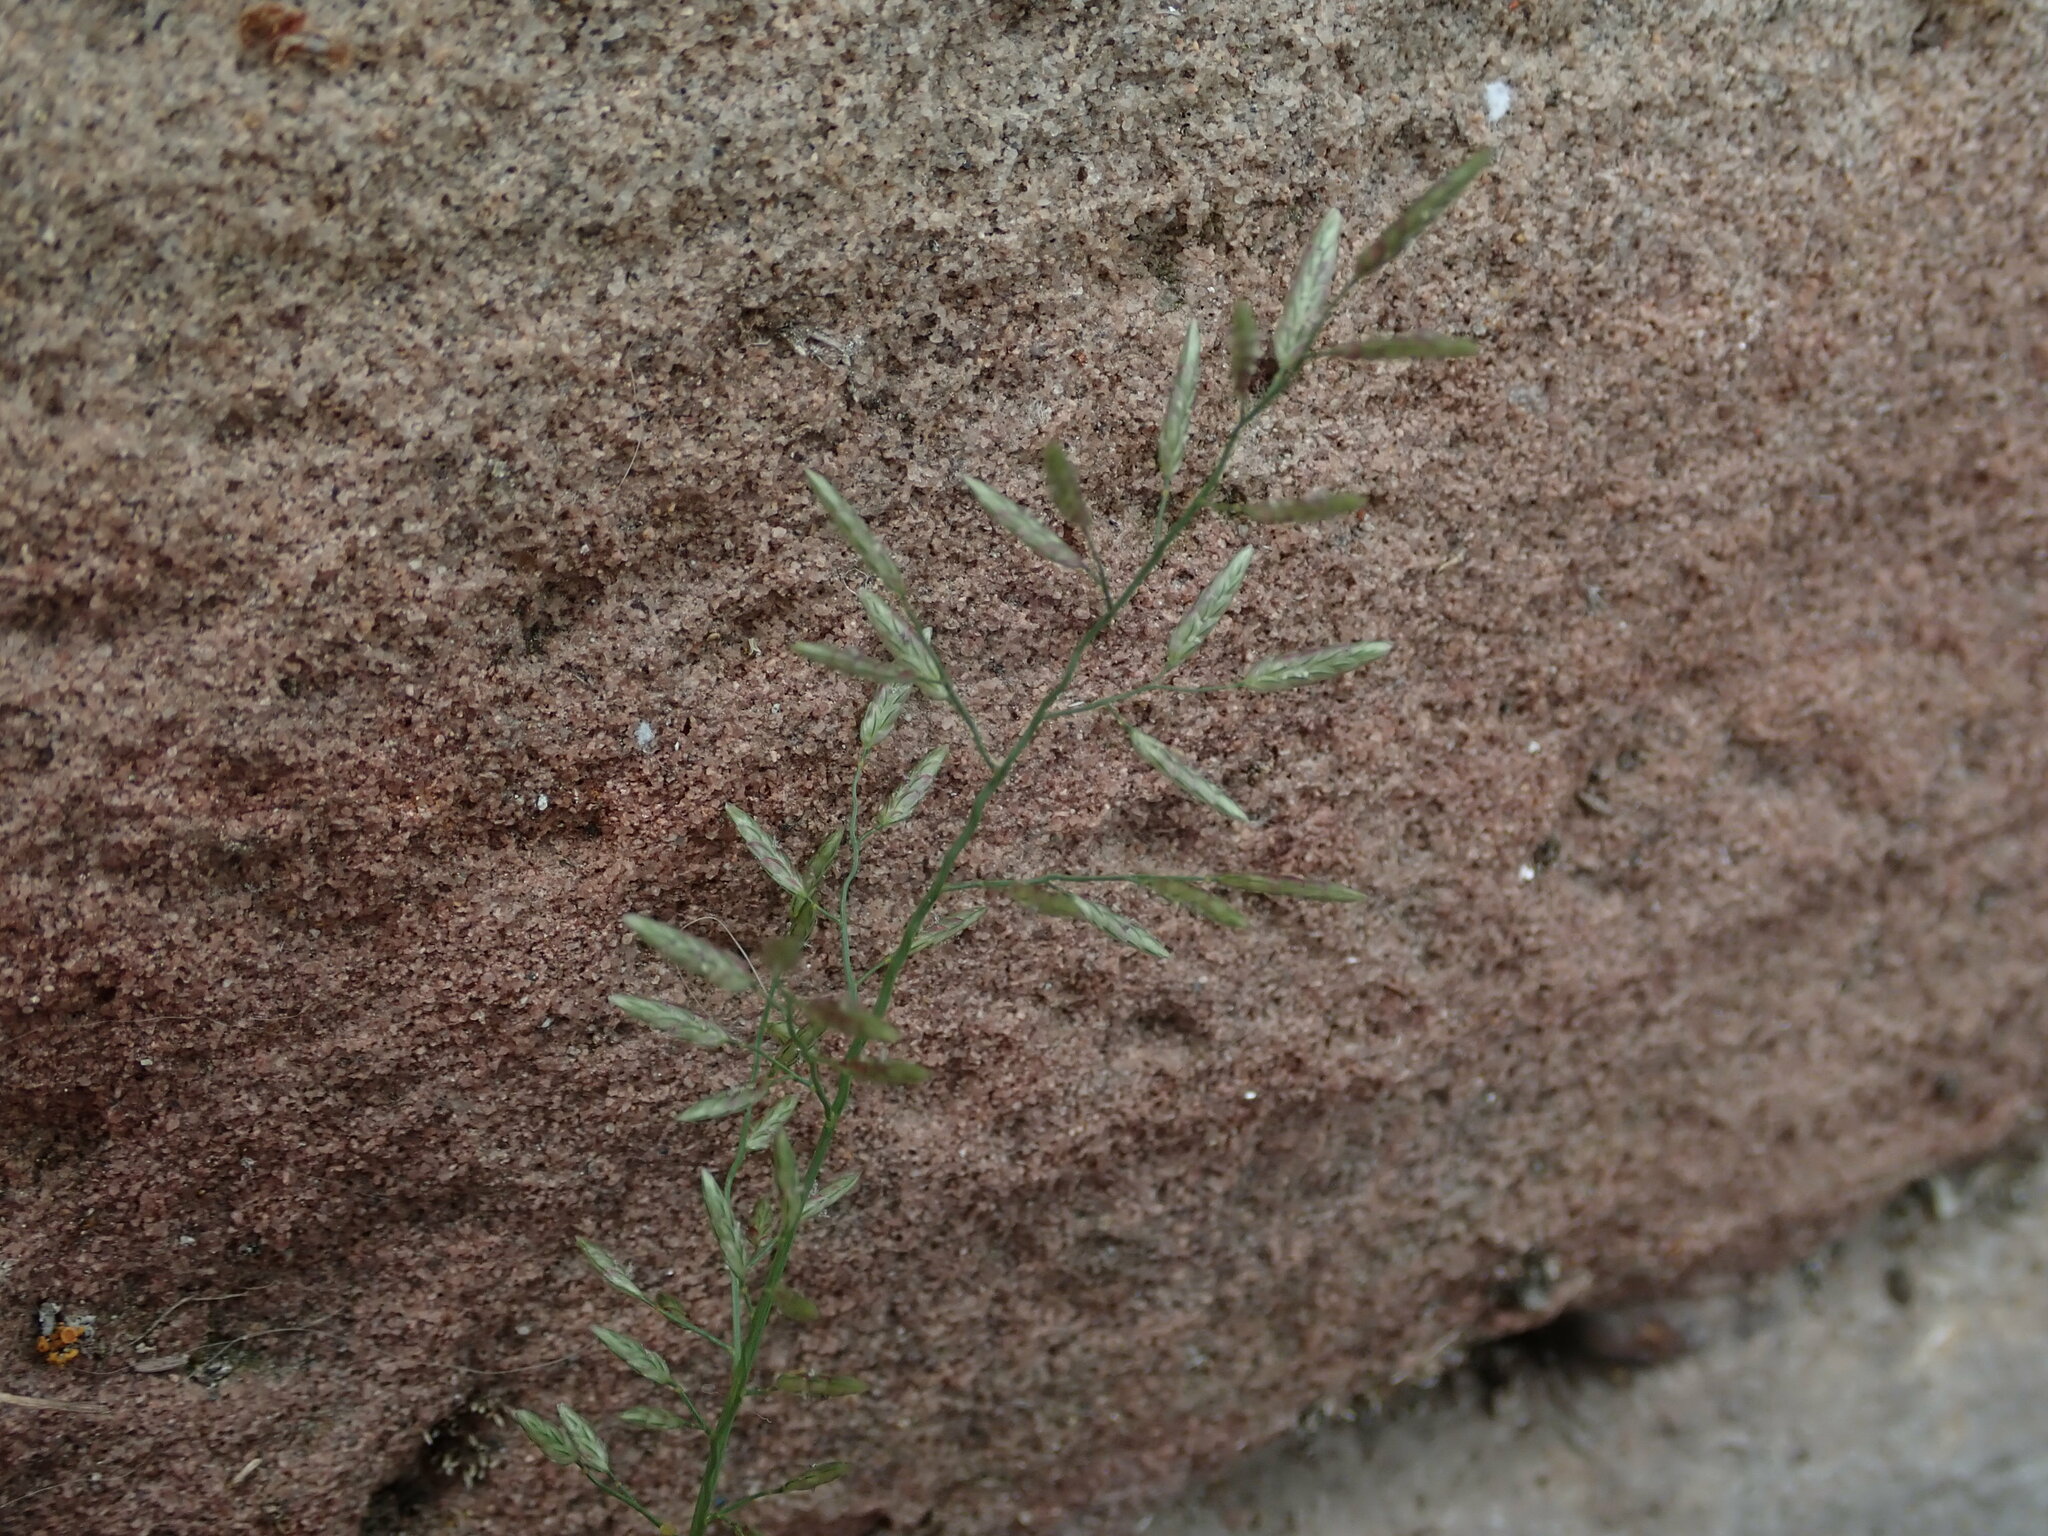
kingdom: Plantae
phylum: Tracheophyta
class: Liliopsida
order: Poales
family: Poaceae
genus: Eragrostis
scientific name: Eragrostis minor
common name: Small love-grass
